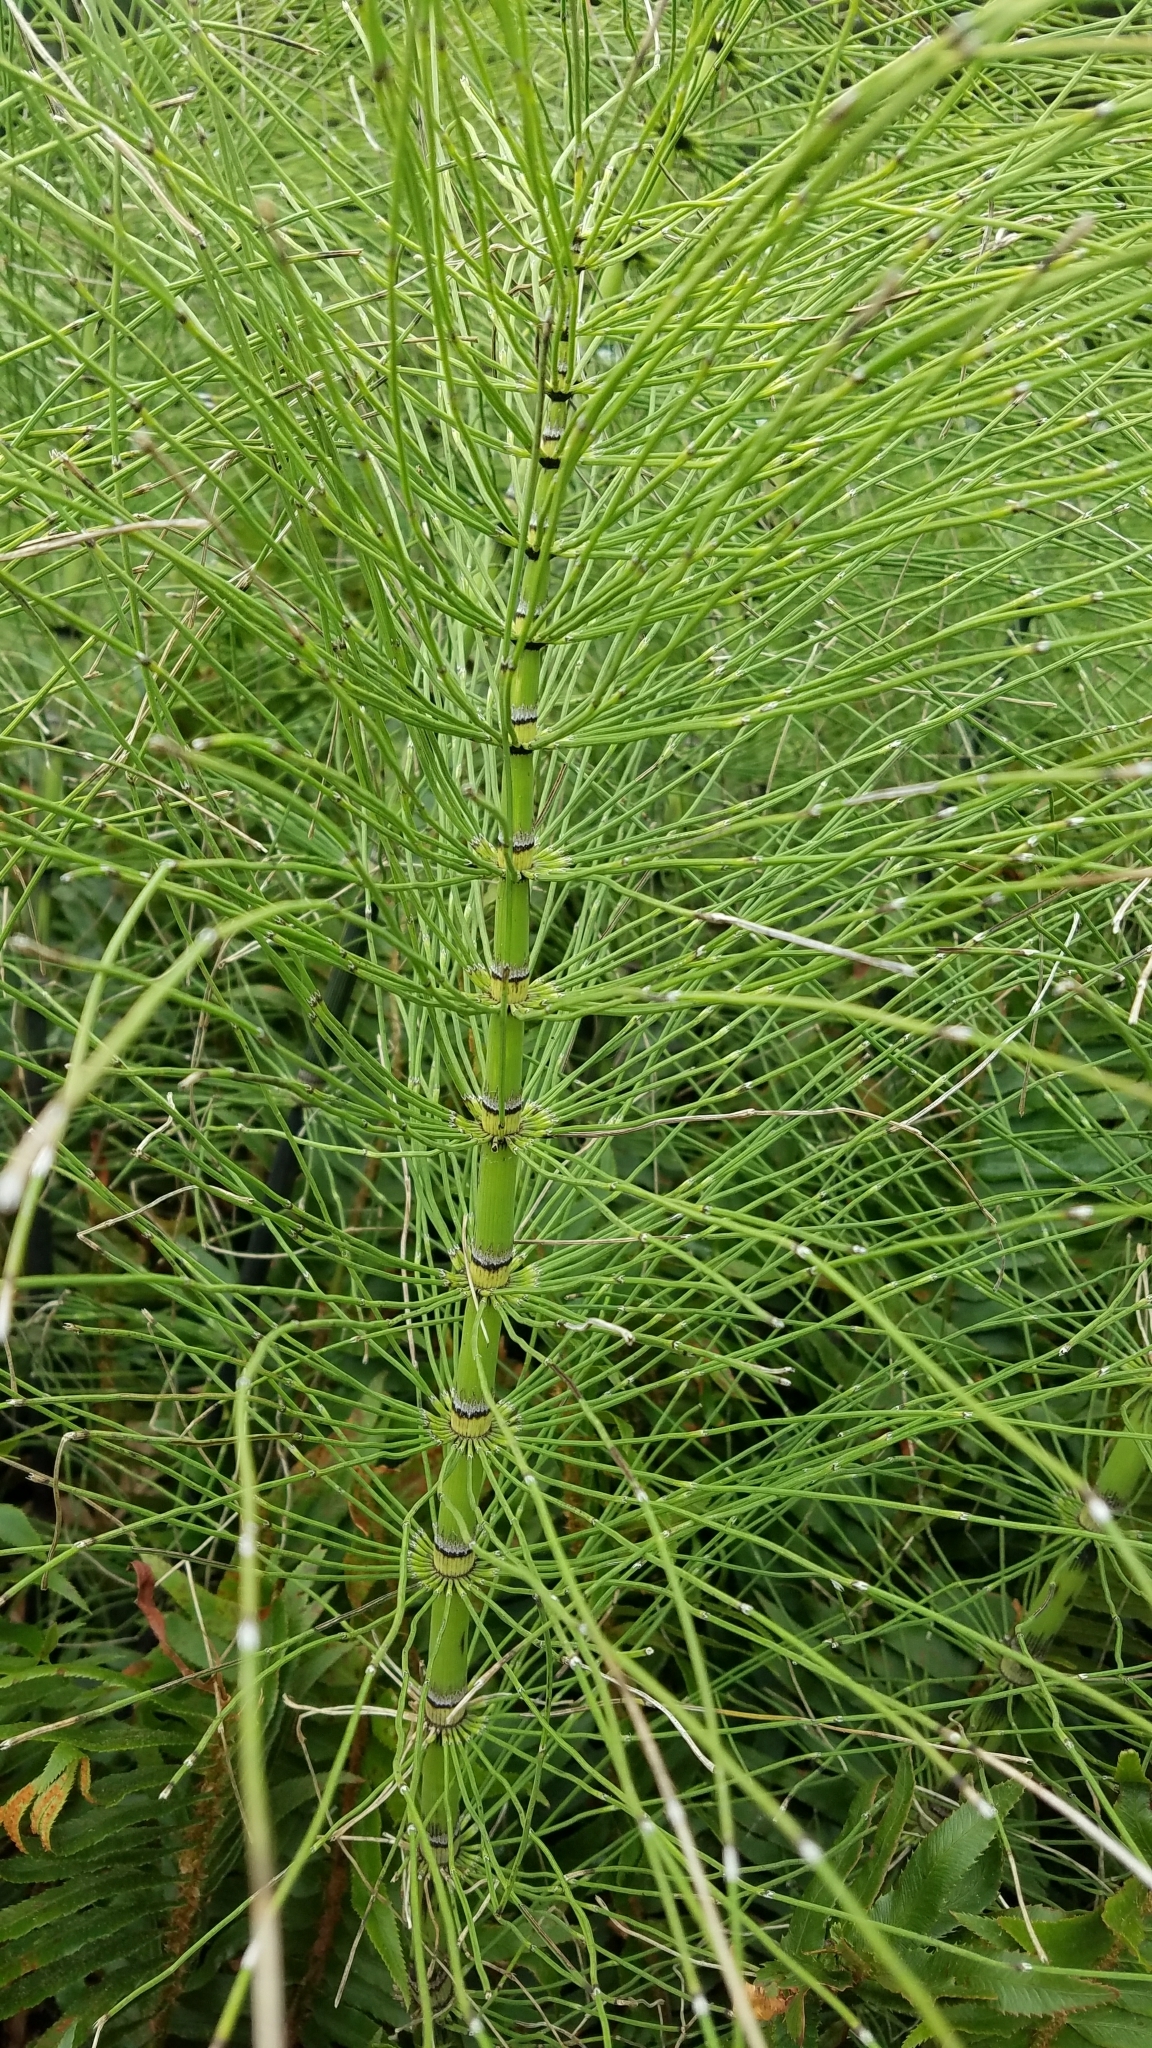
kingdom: Plantae
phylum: Tracheophyta
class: Polypodiopsida
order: Equisetales
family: Equisetaceae
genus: Equisetum
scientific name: Equisetum braunii
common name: Braun's horsetail
